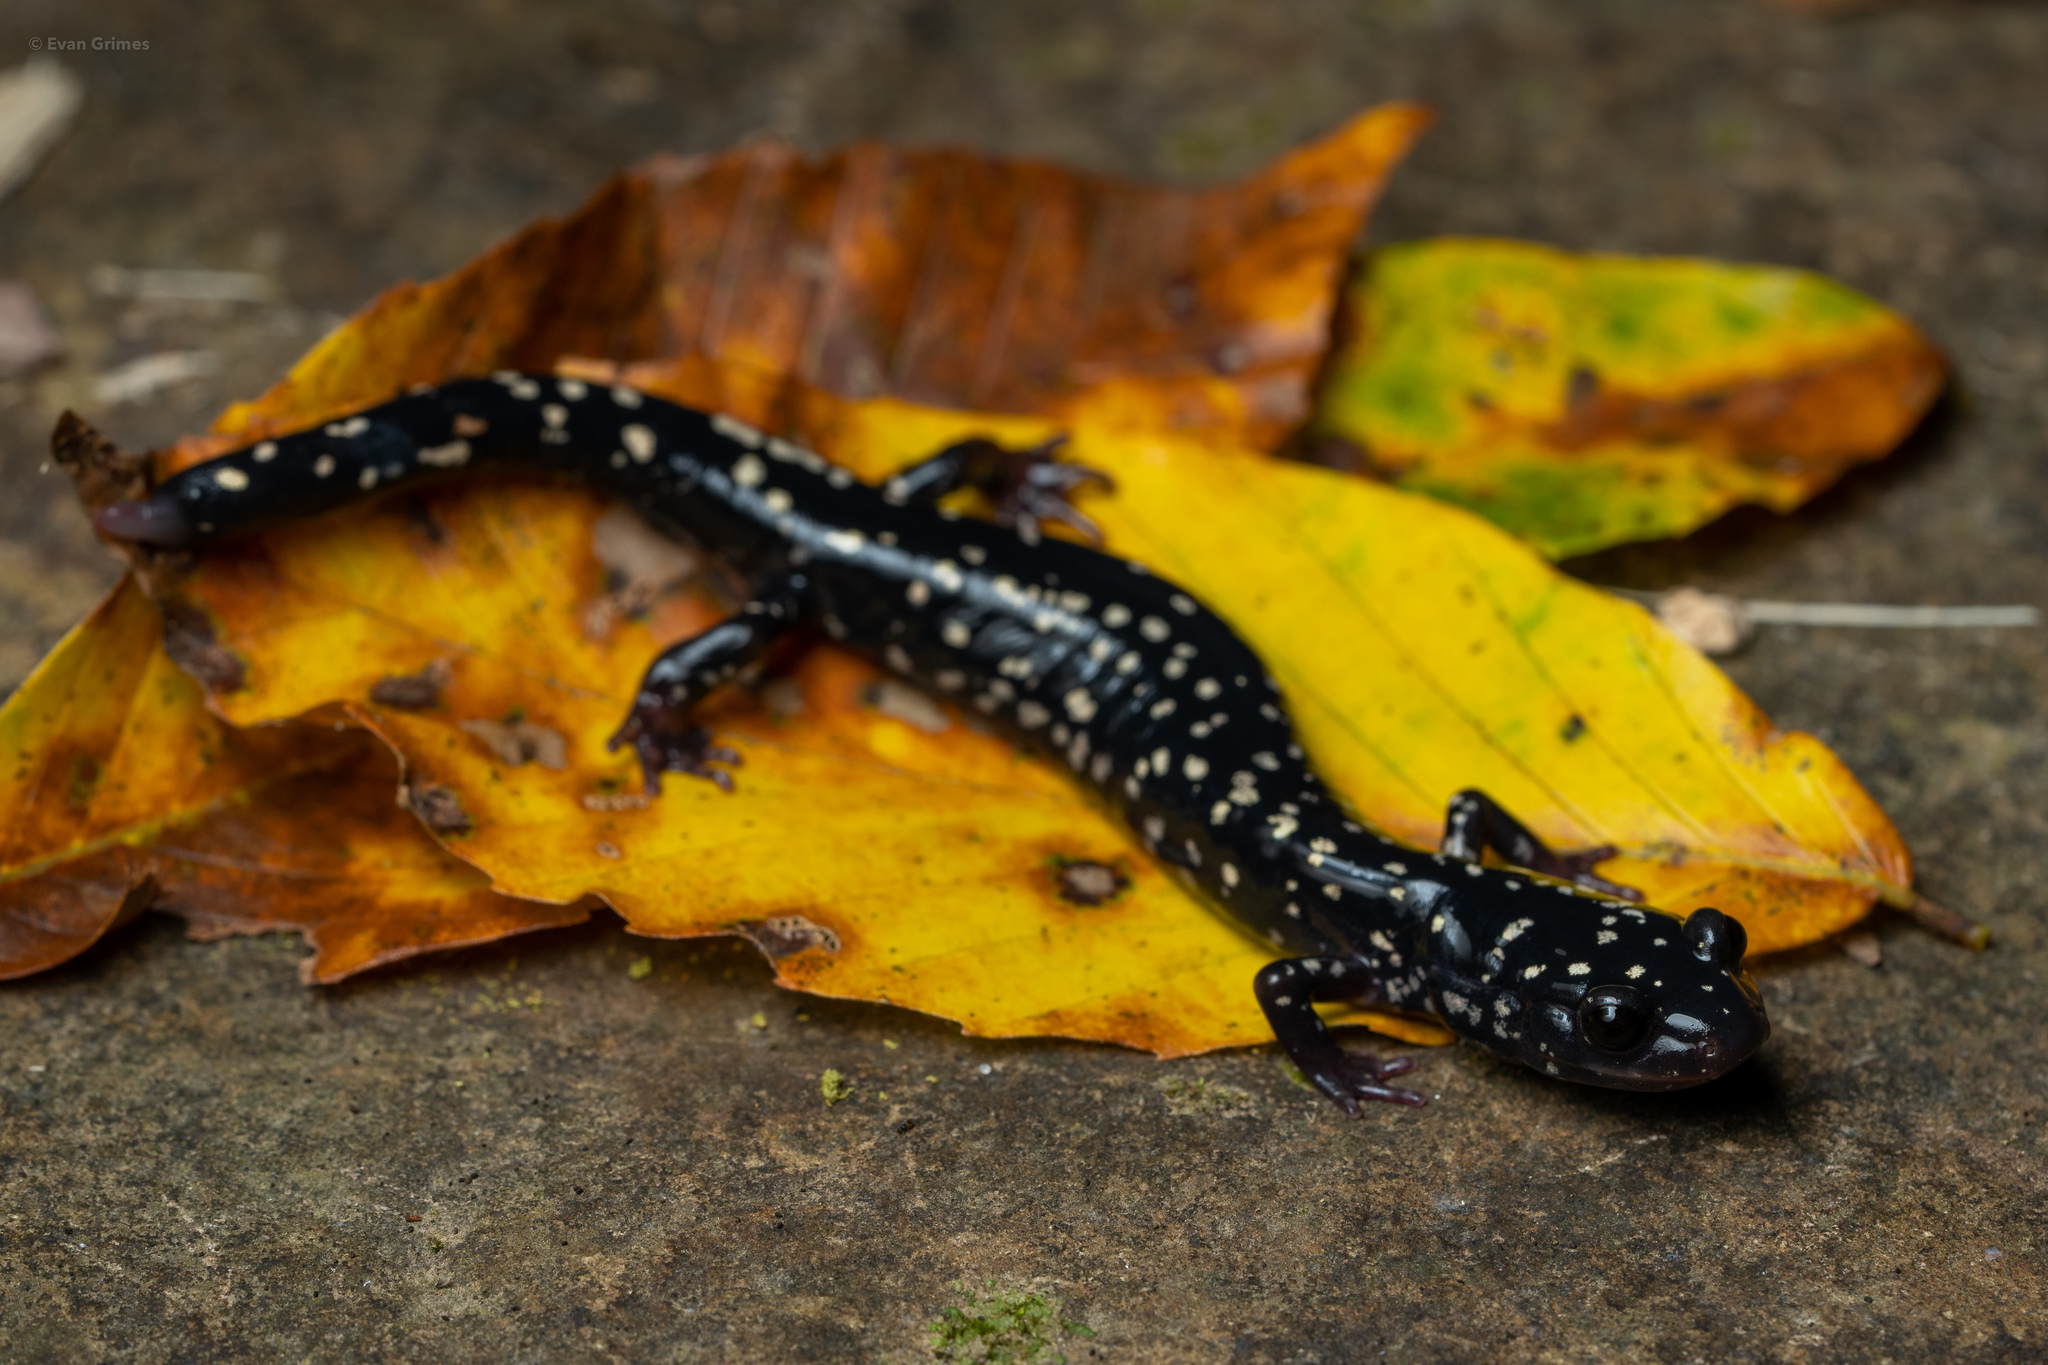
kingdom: Animalia
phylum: Chordata
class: Amphibia
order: Caudata
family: Plethodontidae
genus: Plethodon
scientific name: Plethodon albagula
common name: Western slimy salamander
